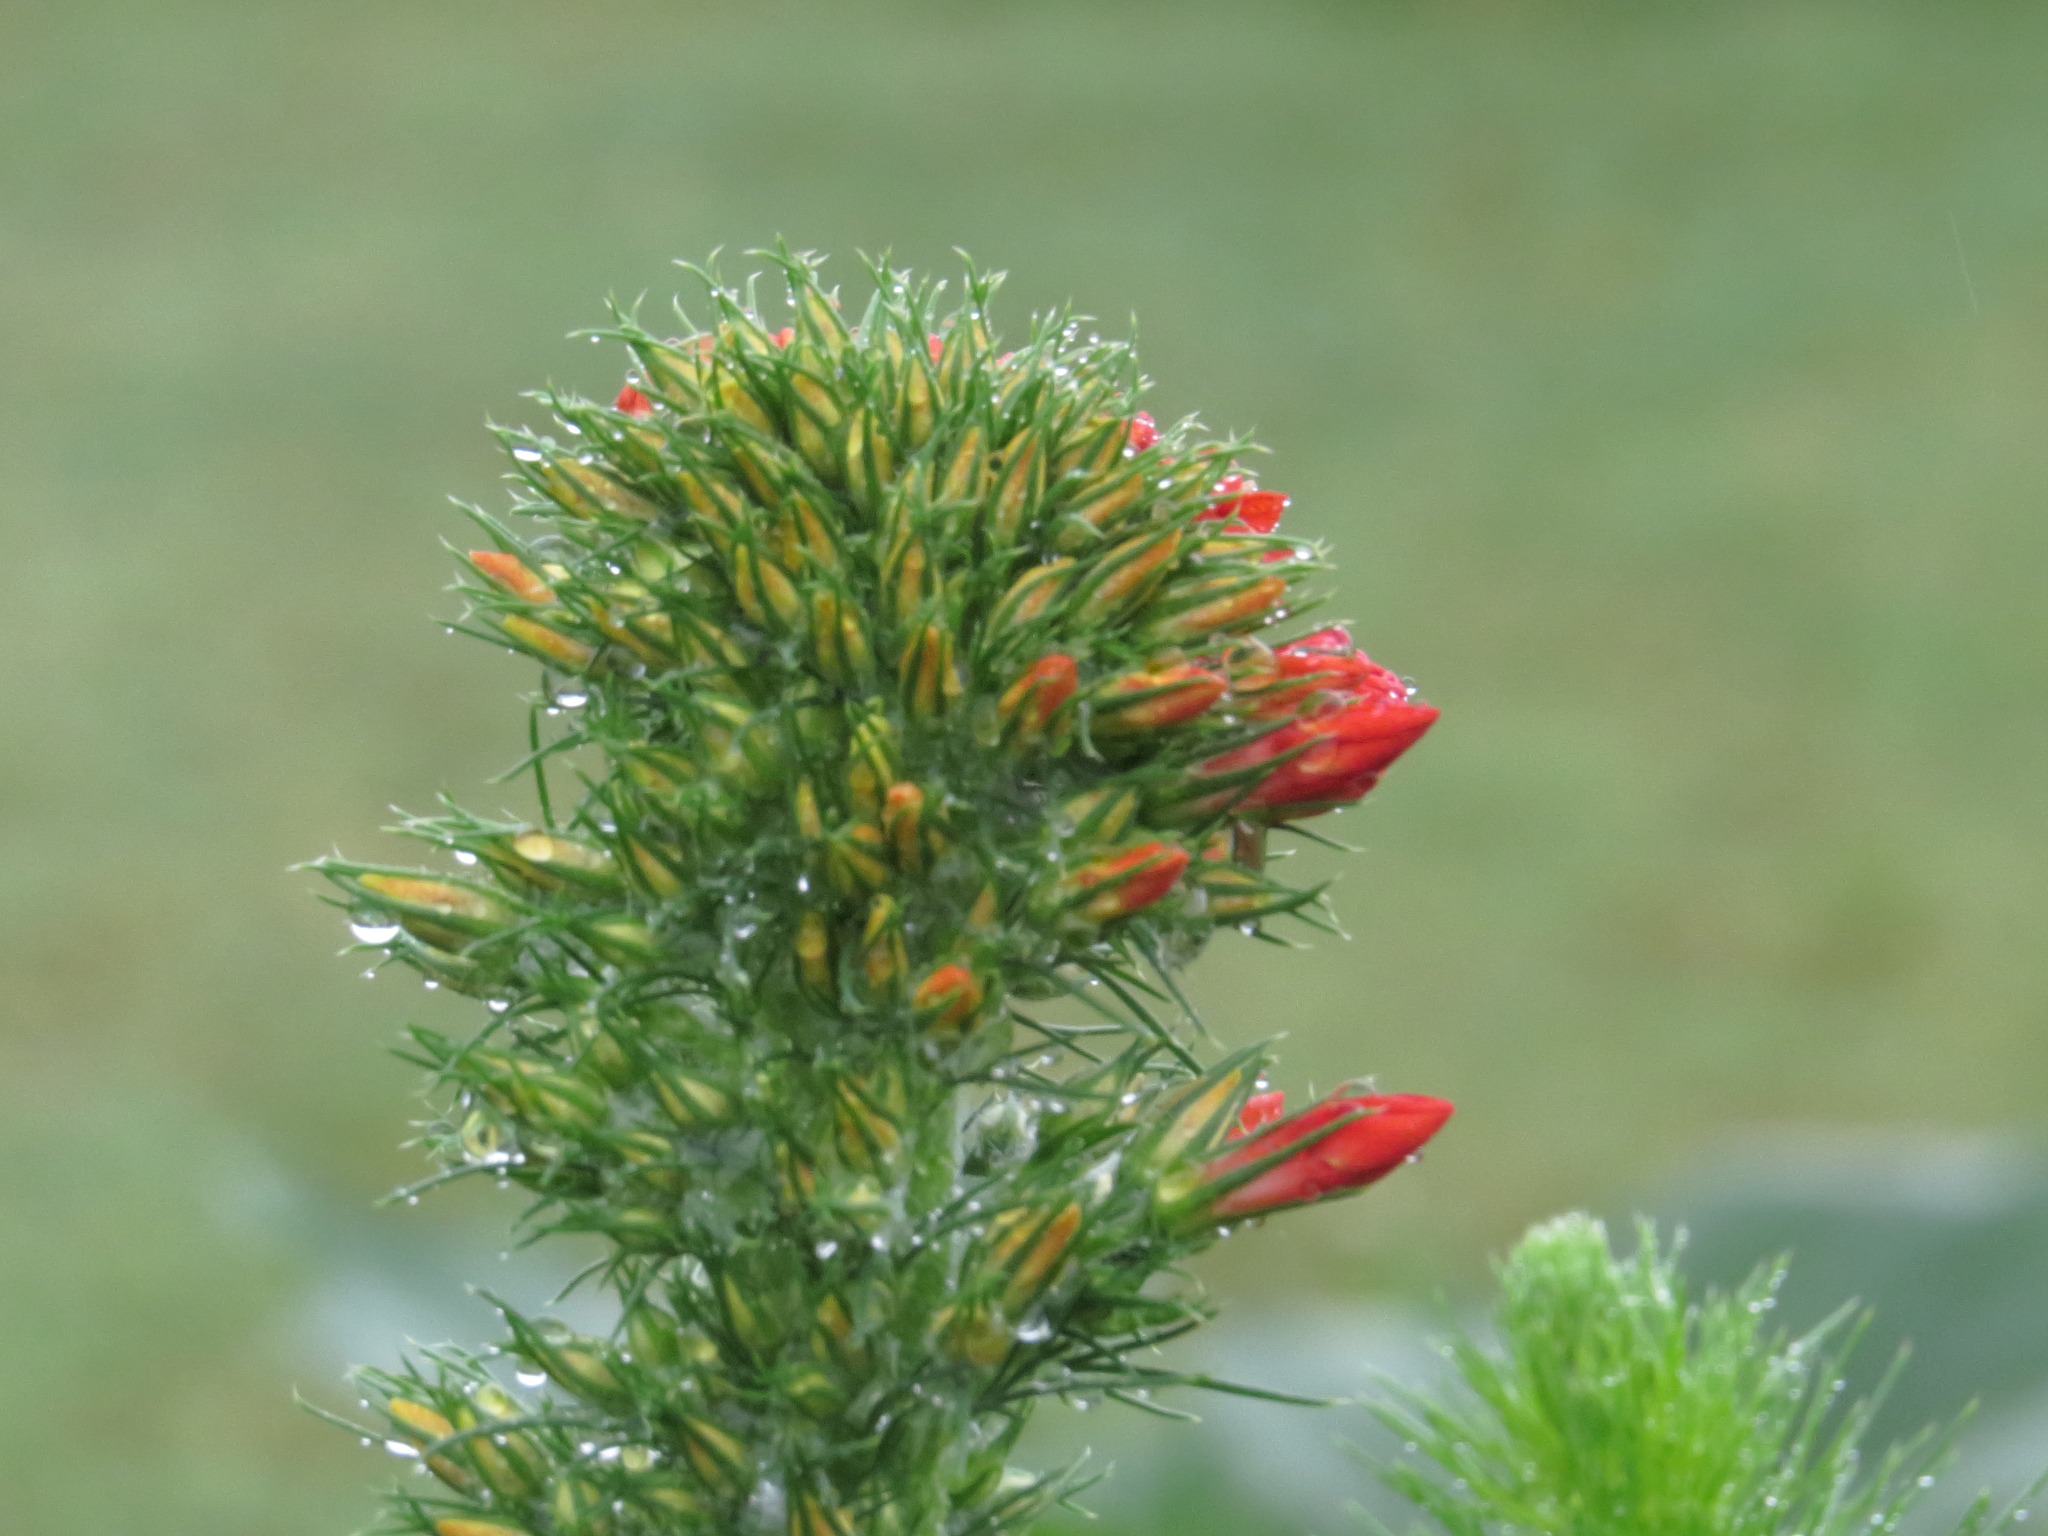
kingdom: Plantae
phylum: Tracheophyta
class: Magnoliopsida
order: Ericales
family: Polemoniaceae
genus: Ipomopsis
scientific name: Ipomopsis rubra
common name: Skyrocket
